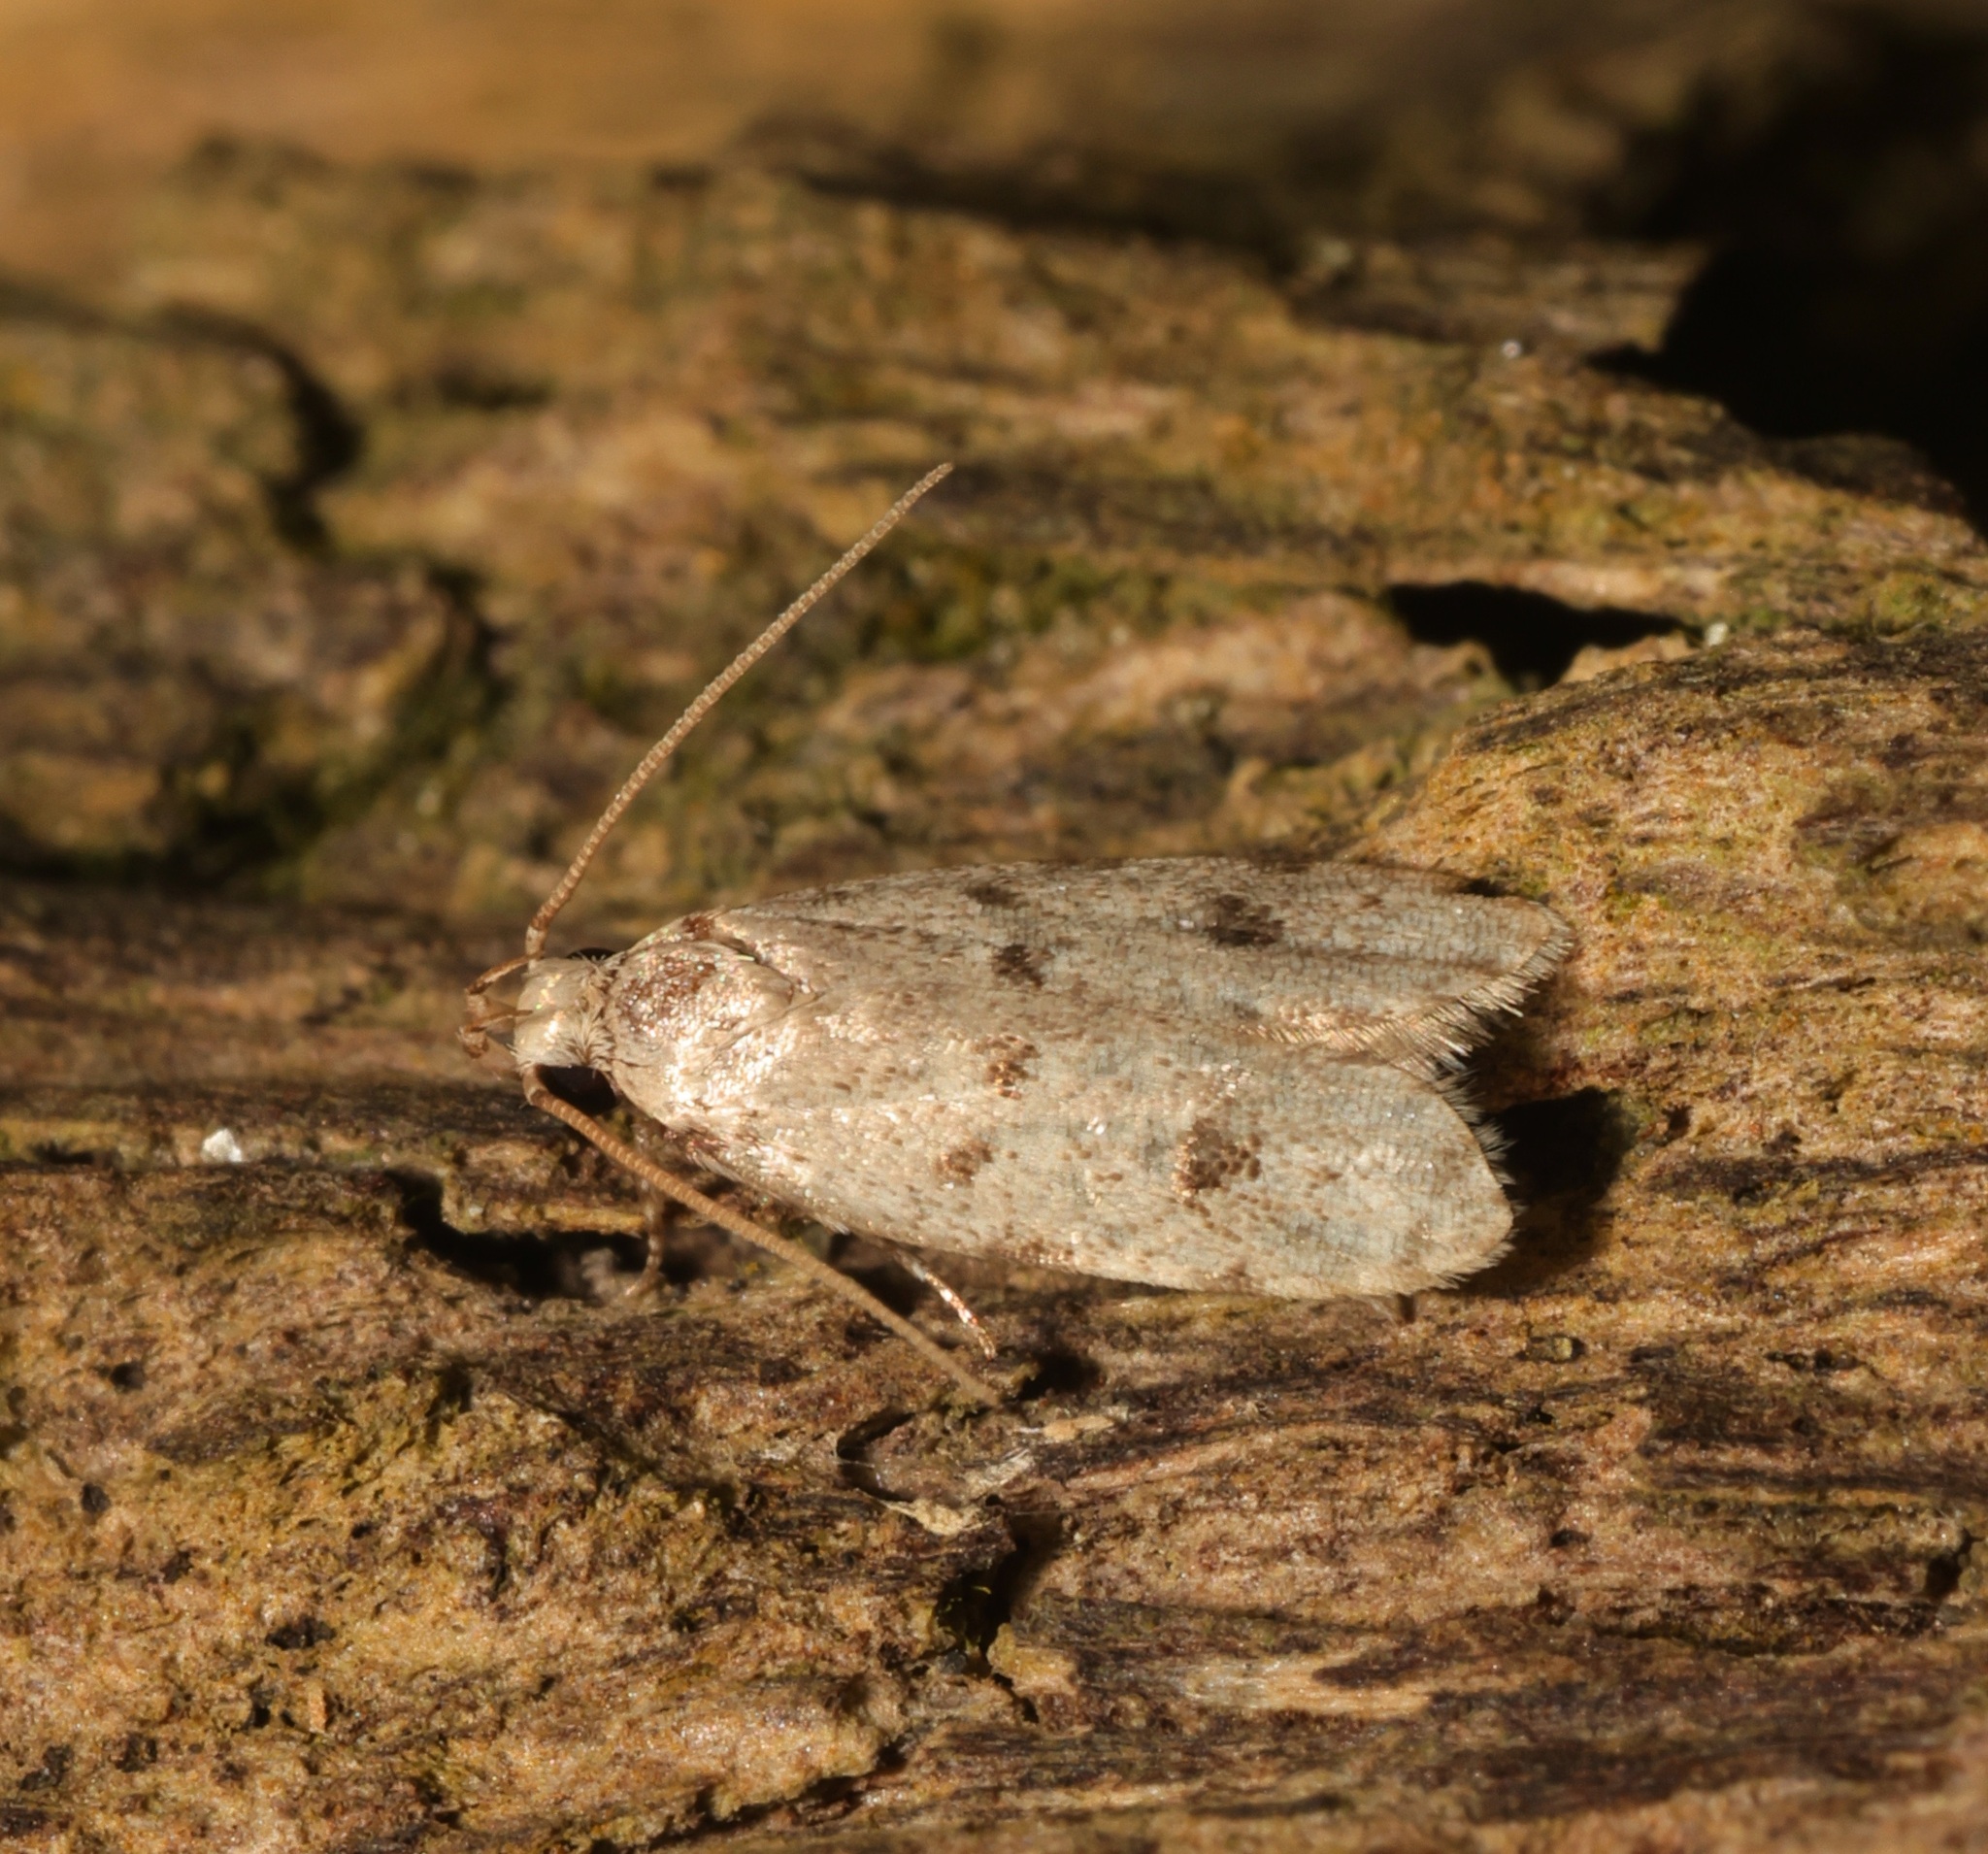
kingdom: Animalia
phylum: Arthropoda
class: Insecta
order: Lepidoptera
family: Autostichidae
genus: Autosticha
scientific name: Autosticha calceata
